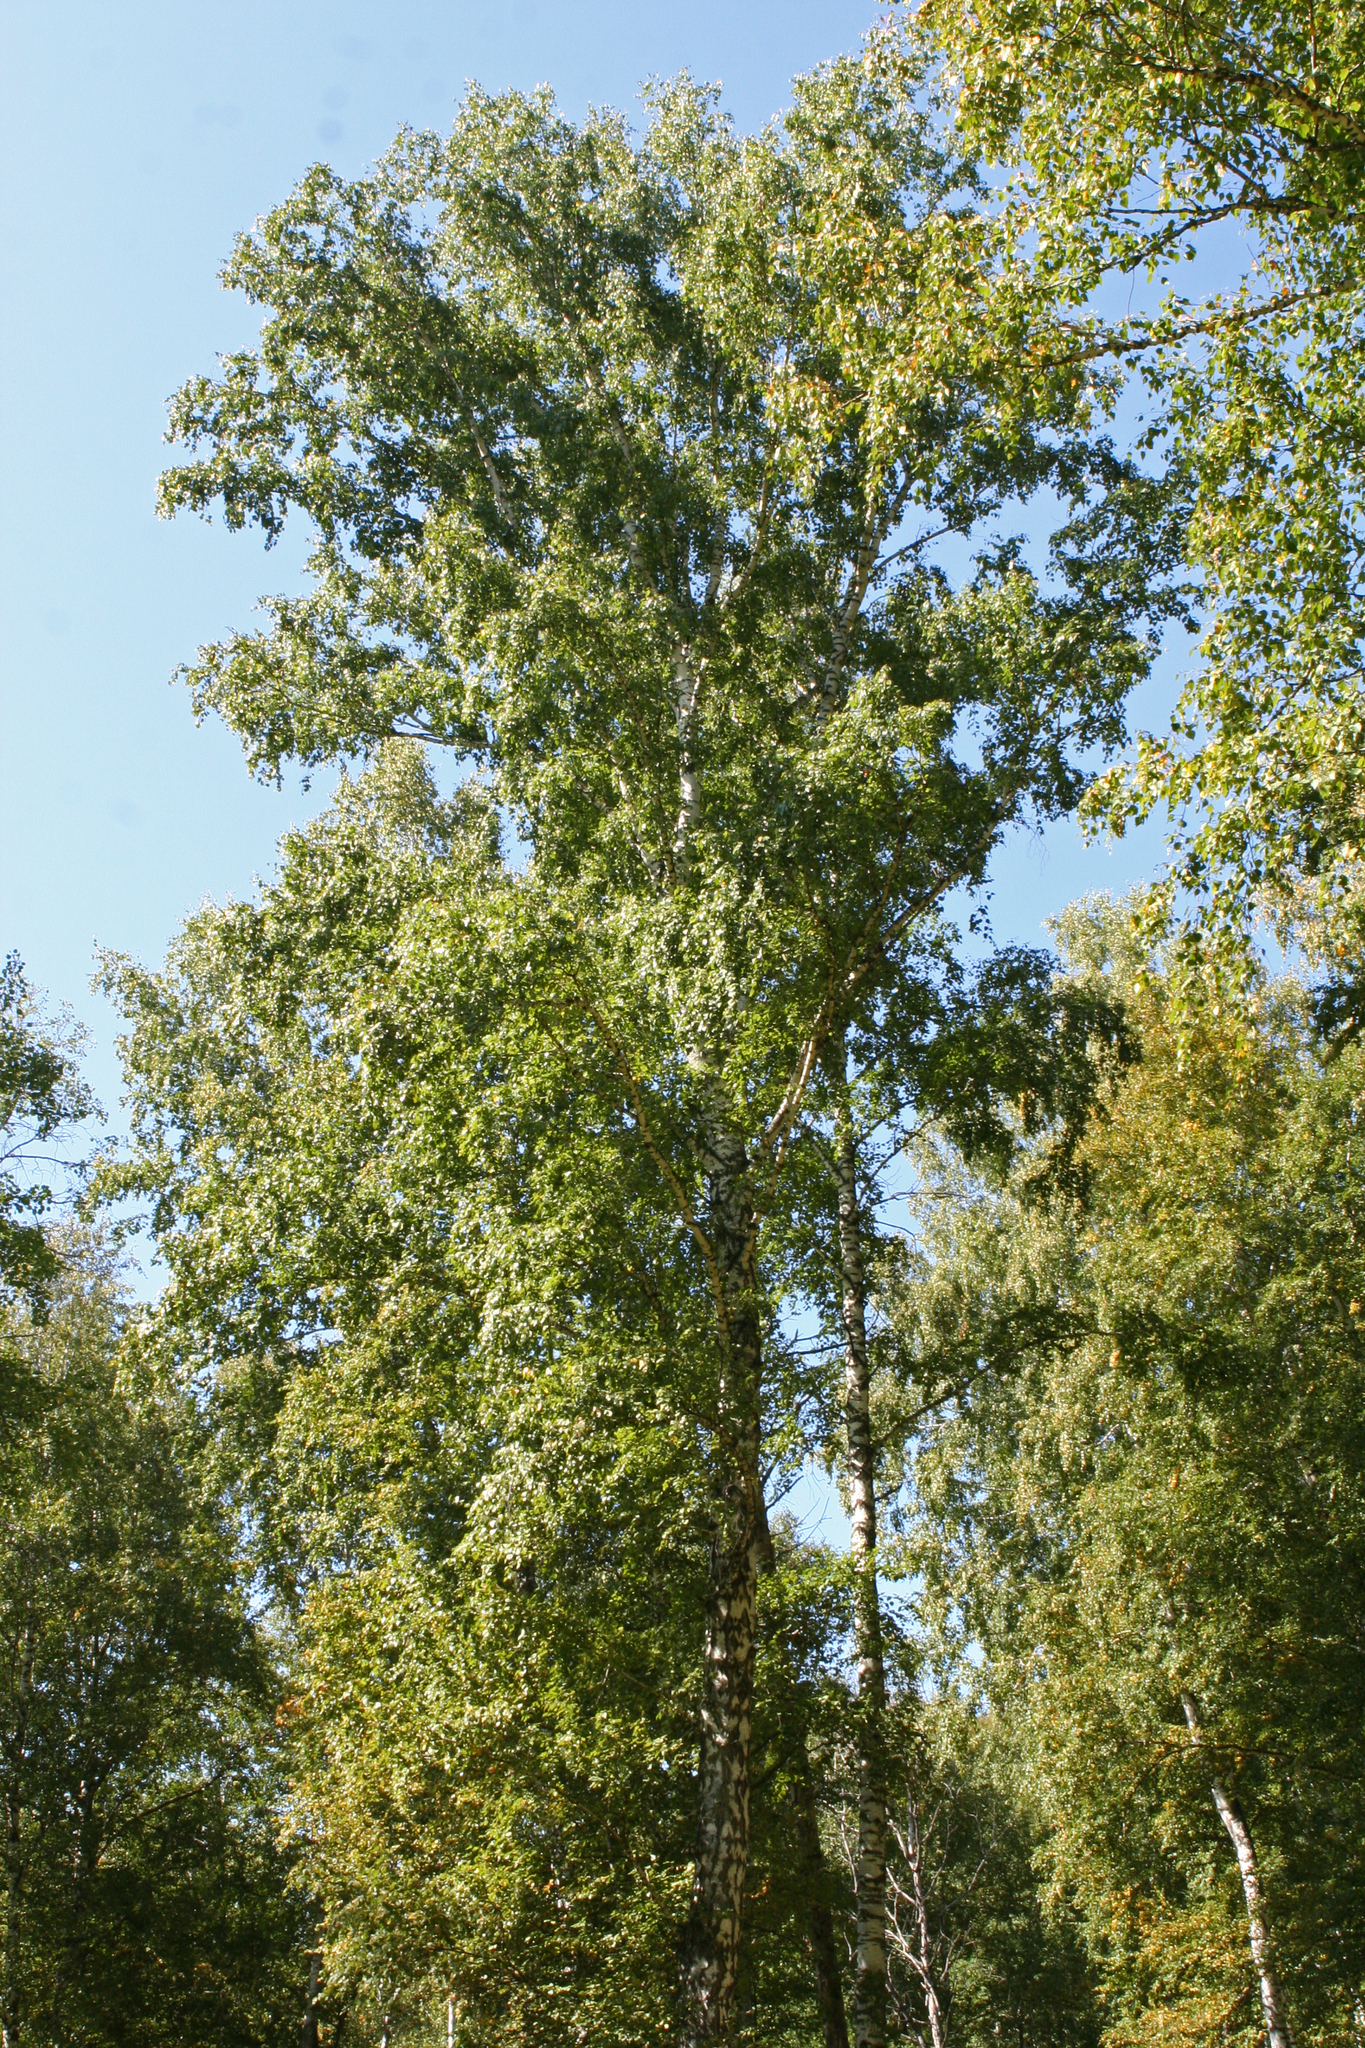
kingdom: Plantae
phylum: Tracheophyta
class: Magnoliopsida
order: Fagales
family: Betulaceae
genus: Betula
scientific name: Betula pendula
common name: Silver birch
